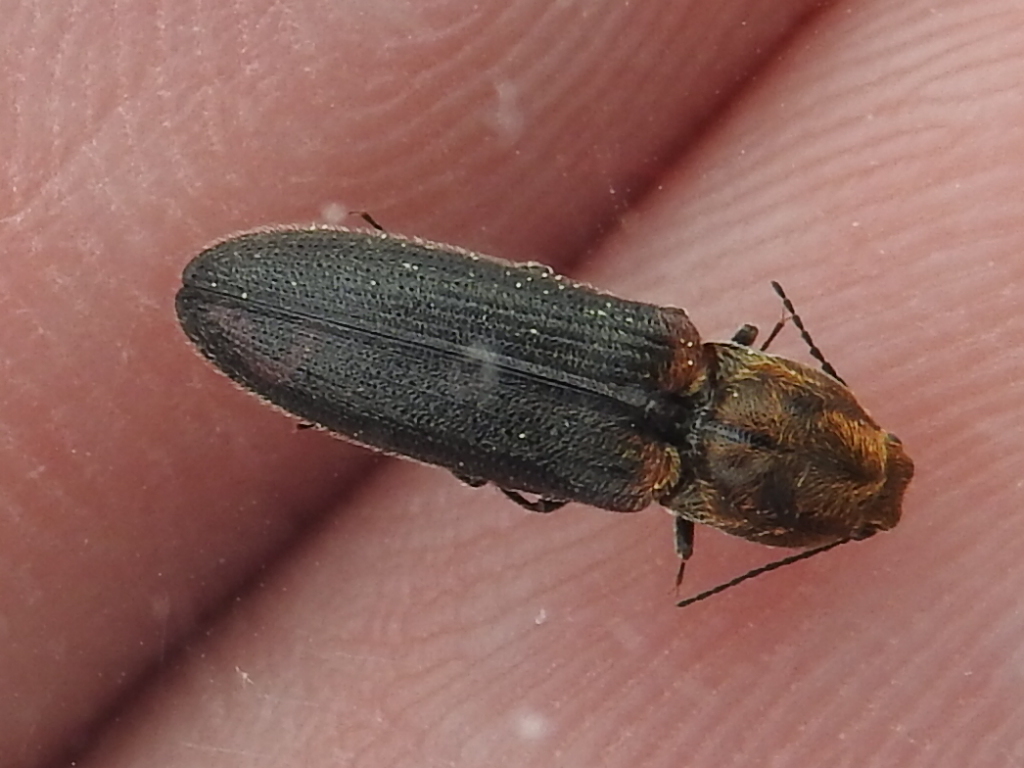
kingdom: Animalia
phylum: Arthropoda
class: Insecta
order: Coleoptera
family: Elateridae
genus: Limonius
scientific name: Limonius auripilis
